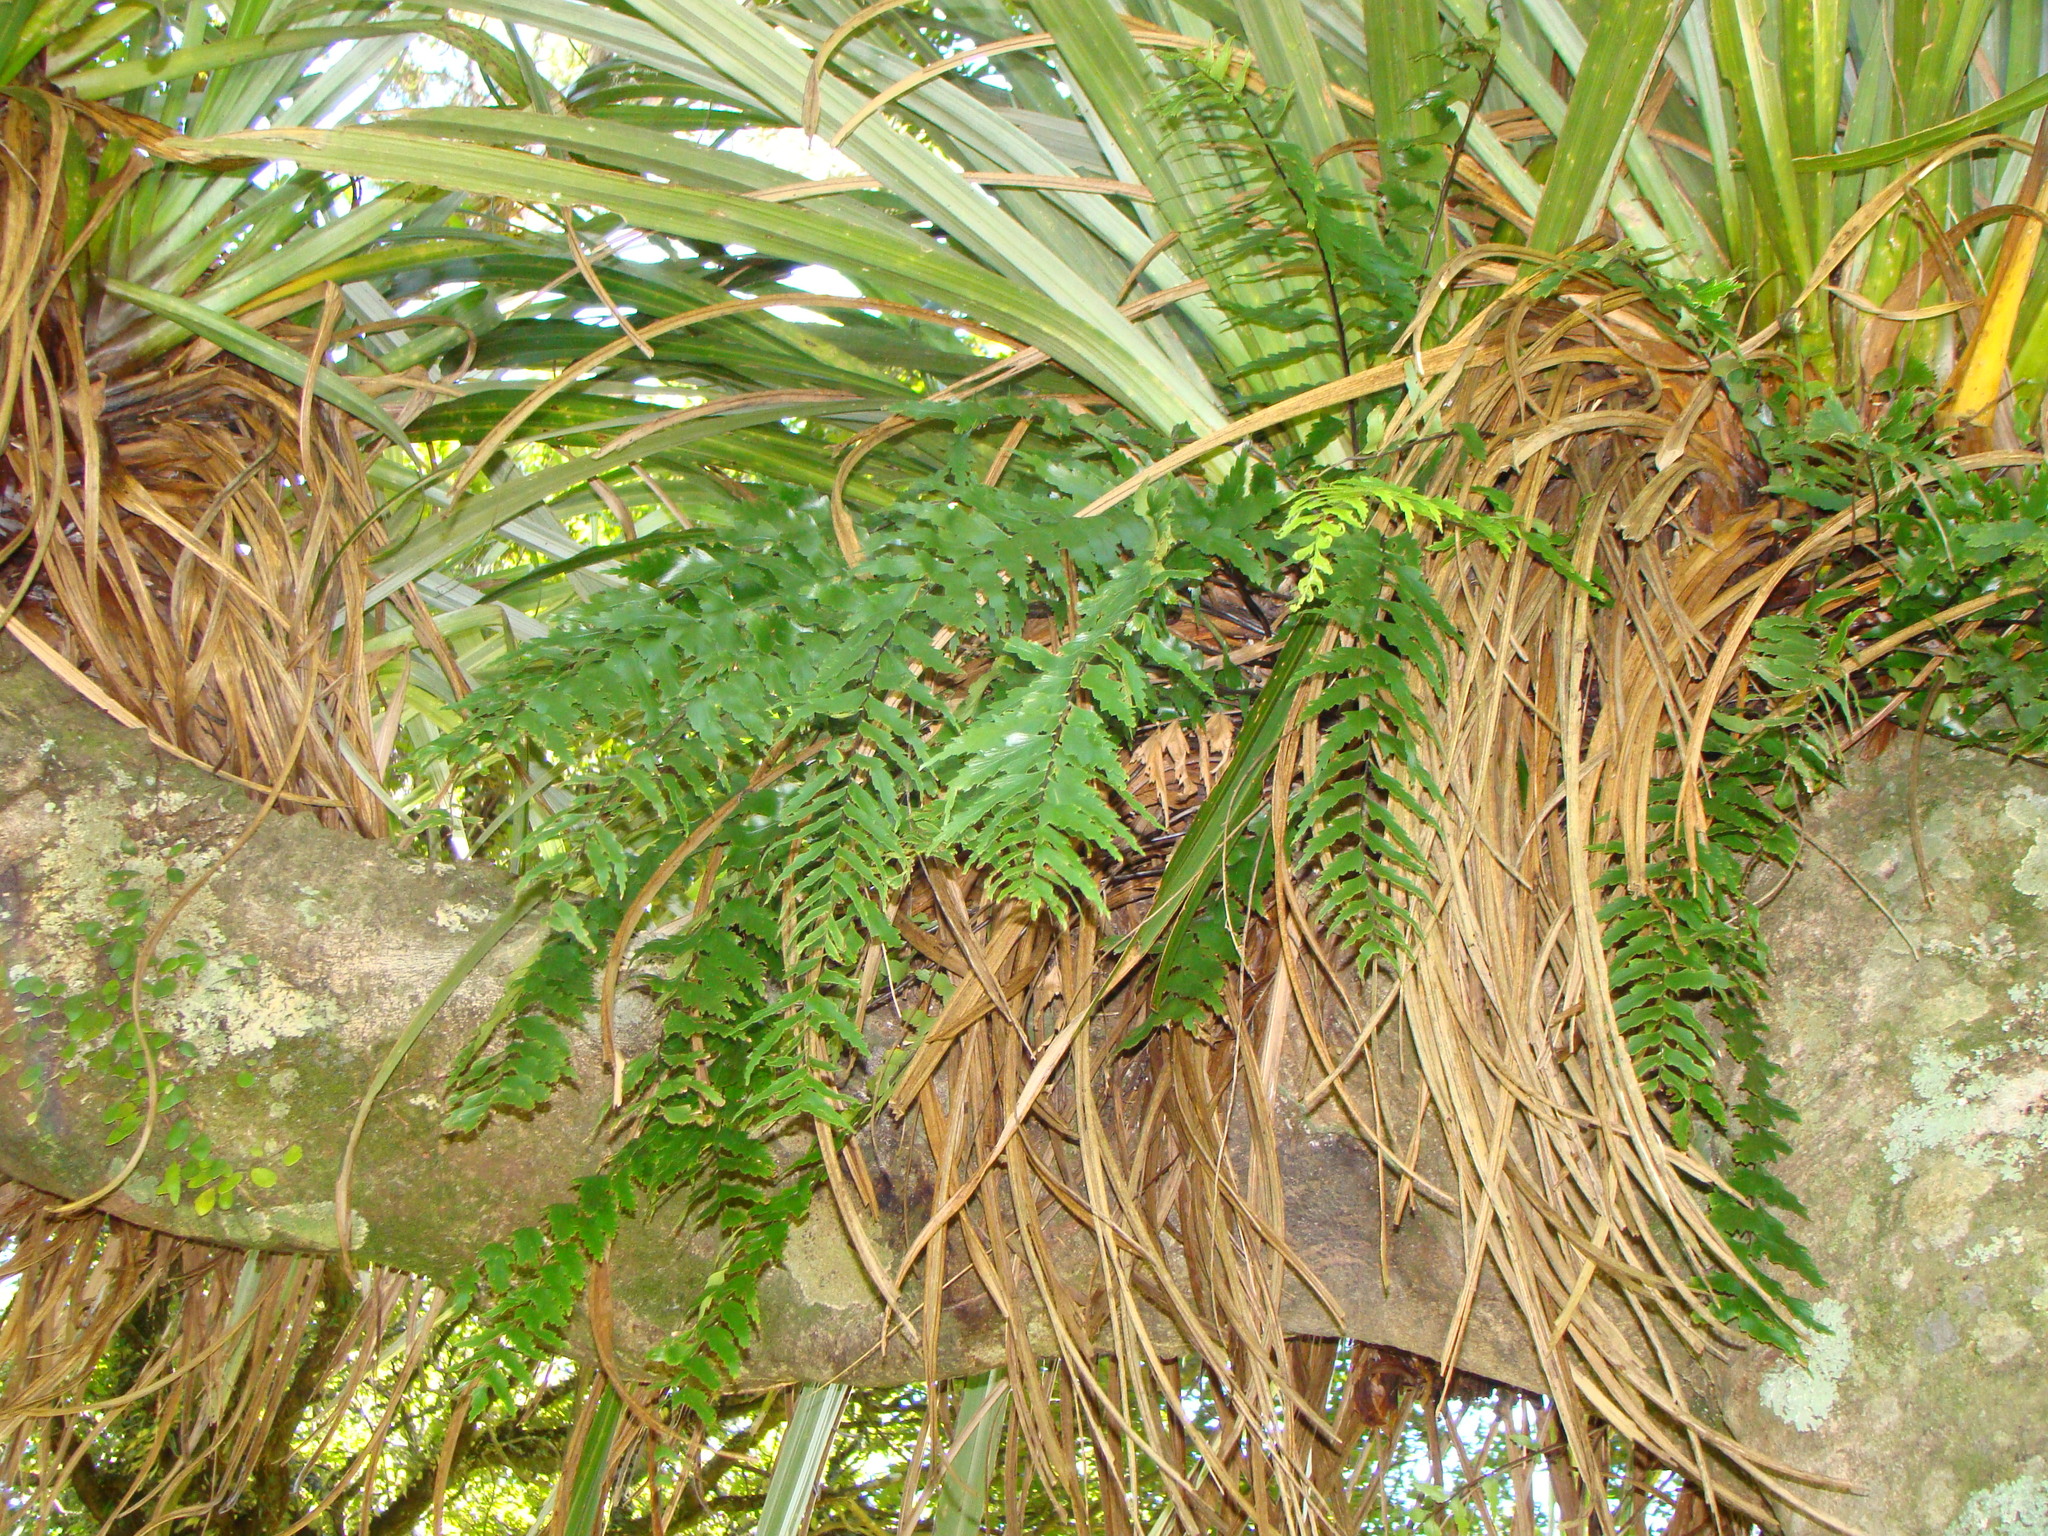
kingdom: Plantae
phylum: Tracheophyta
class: Polypodiopsida
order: Polypodiales
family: Aspleniaceae
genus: Asplenium
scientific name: Asplenium polyodon
